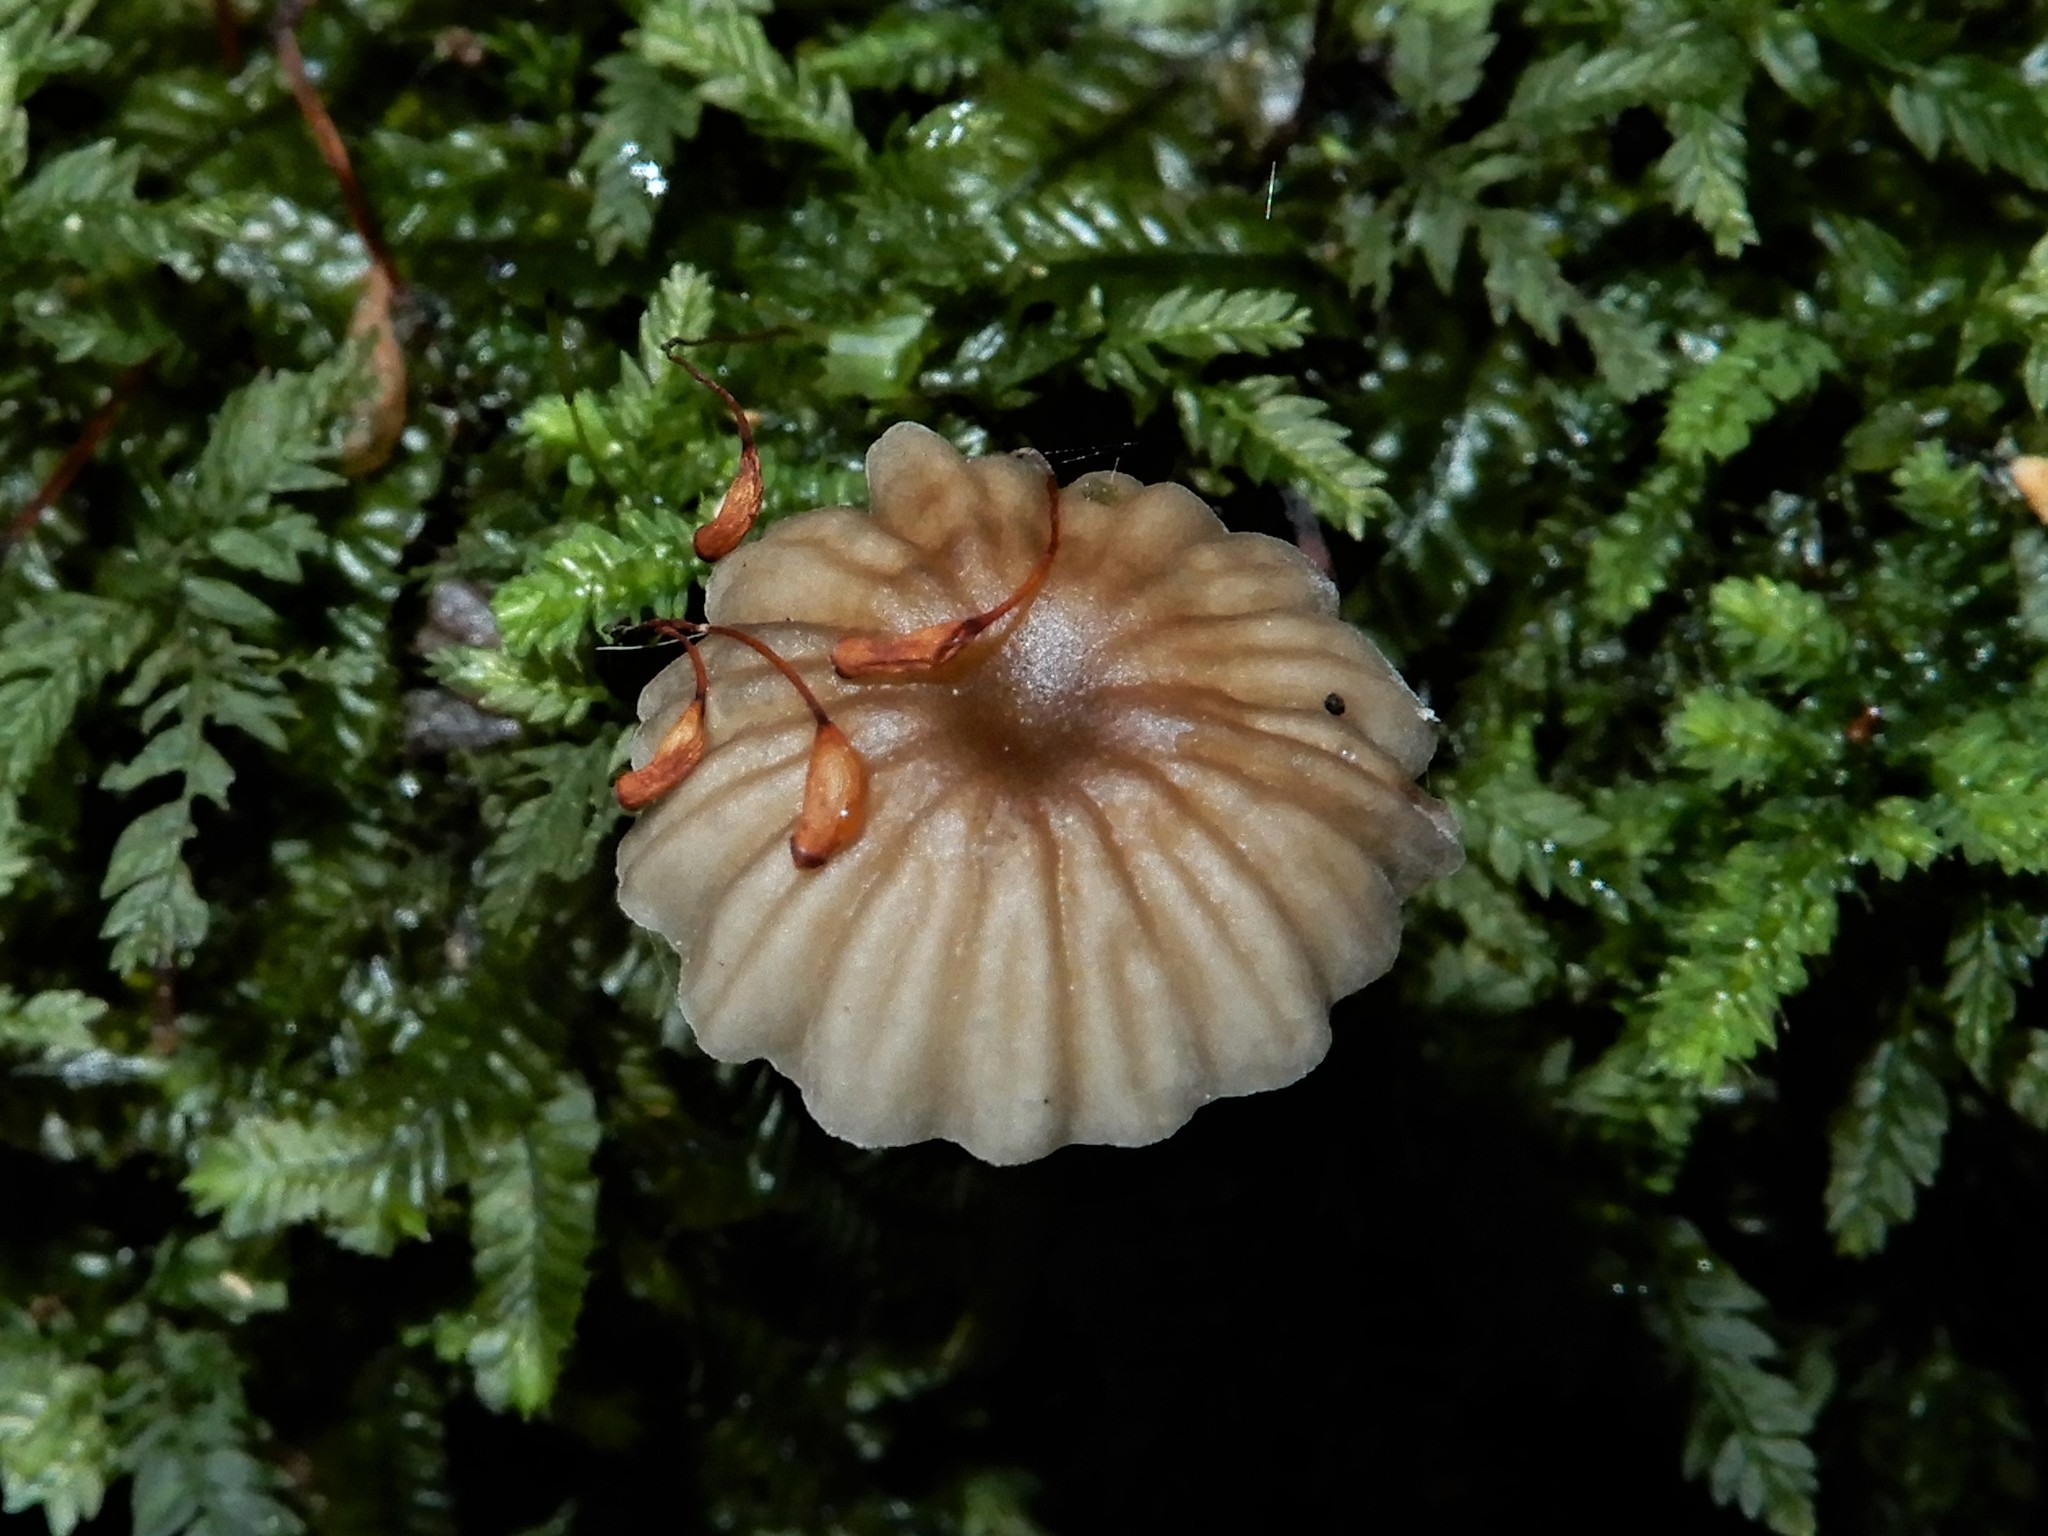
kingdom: Fungi
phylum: Basidiomycota
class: Agaricomycetes
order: Agaricales
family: Mycenaceae
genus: Mycena
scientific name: Mycena helminthobasis
